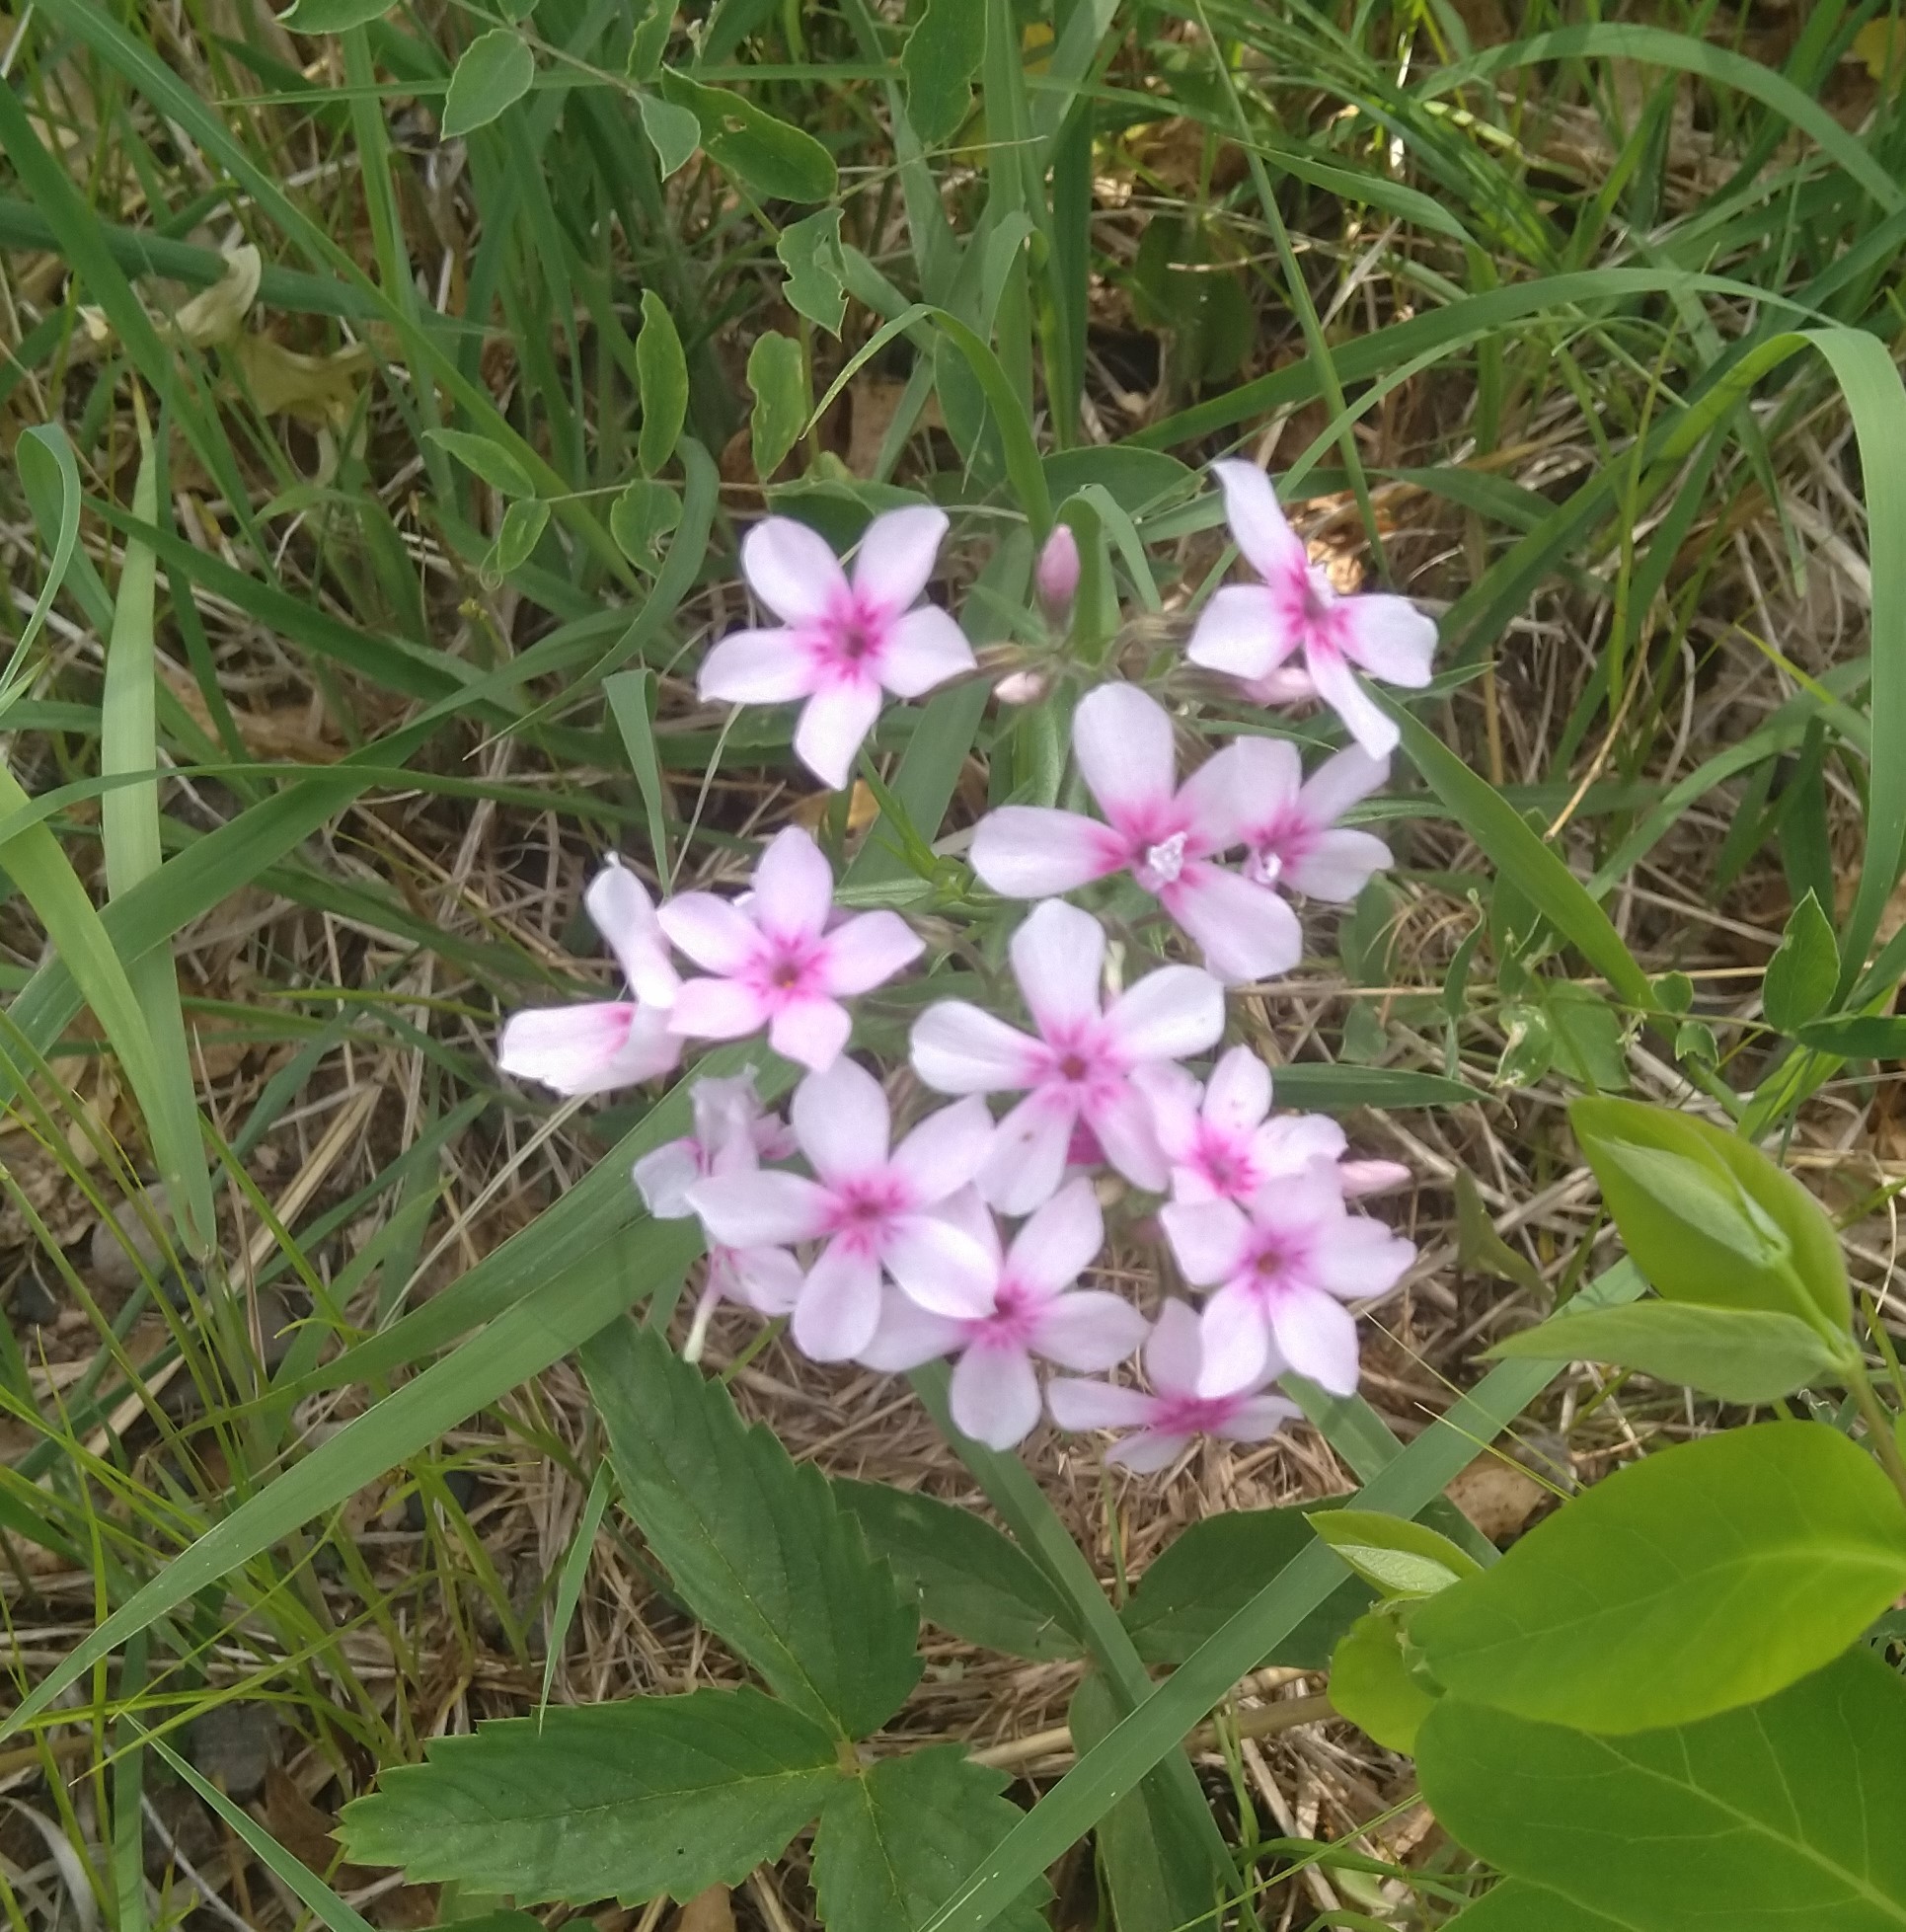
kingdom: Plantae
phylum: Tracheophyta
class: Magnoliopsida
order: Ericales
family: Polemoniaceae
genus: Phlox
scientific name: Phlox pilosa
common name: Prairie phlox
